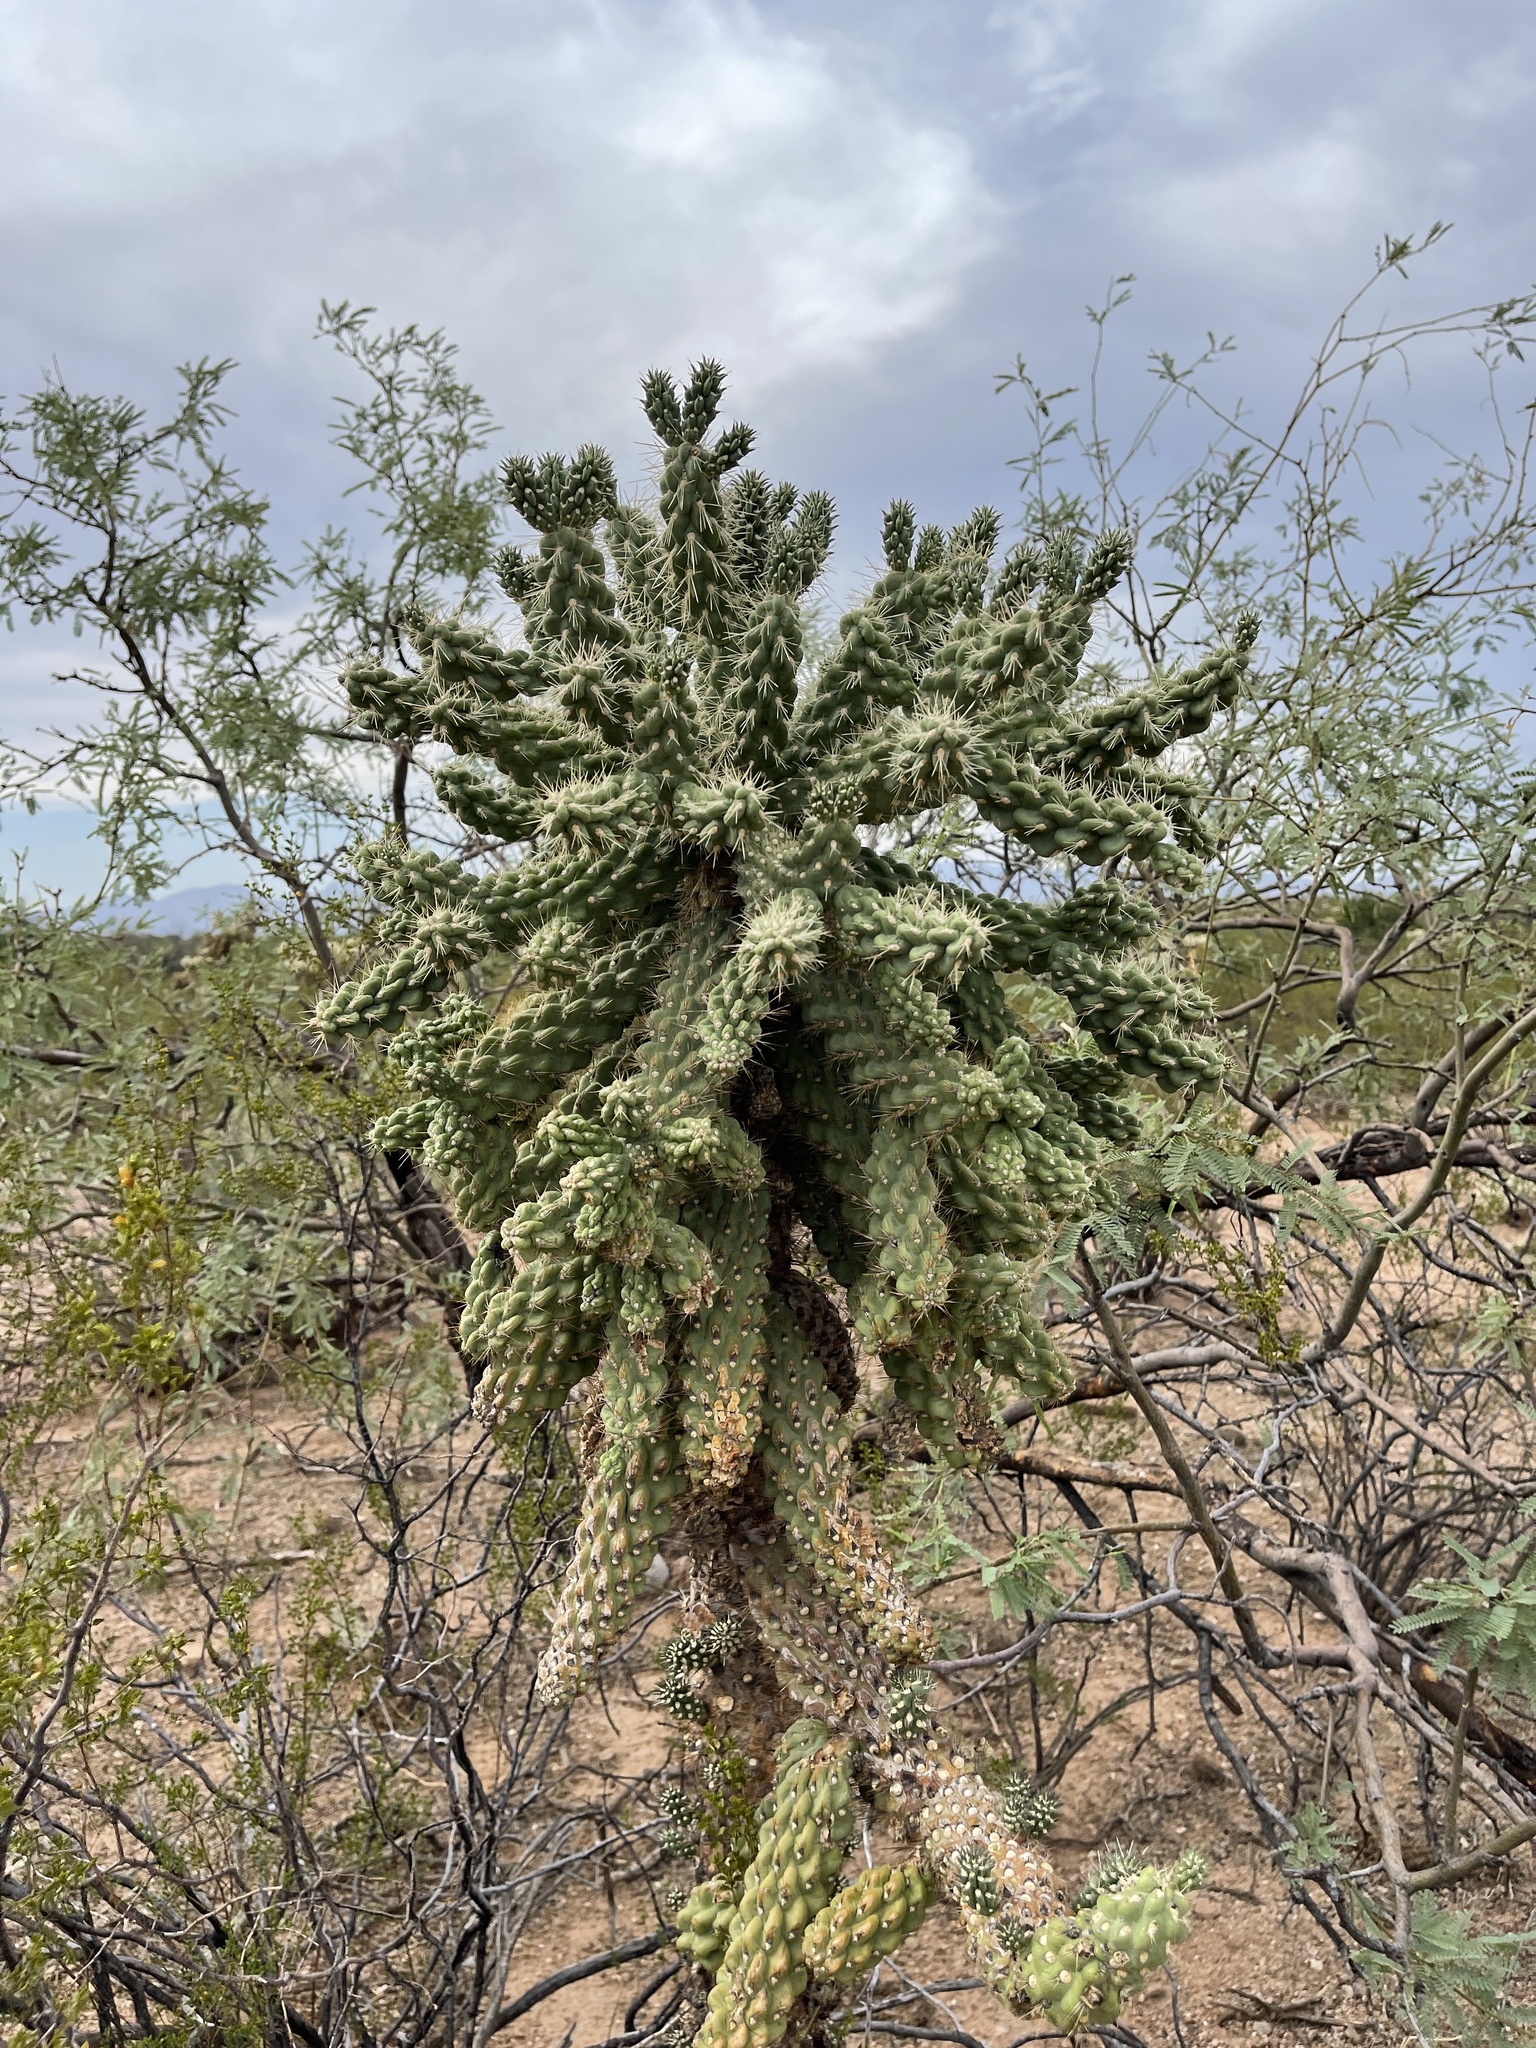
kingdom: Plantae
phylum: Tracheophyta
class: Magnoliopsida
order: Caryophyllales
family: Cactaceae
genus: Cylindropuntia
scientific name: Cylindropuntia fulgida
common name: Jumping cholla
